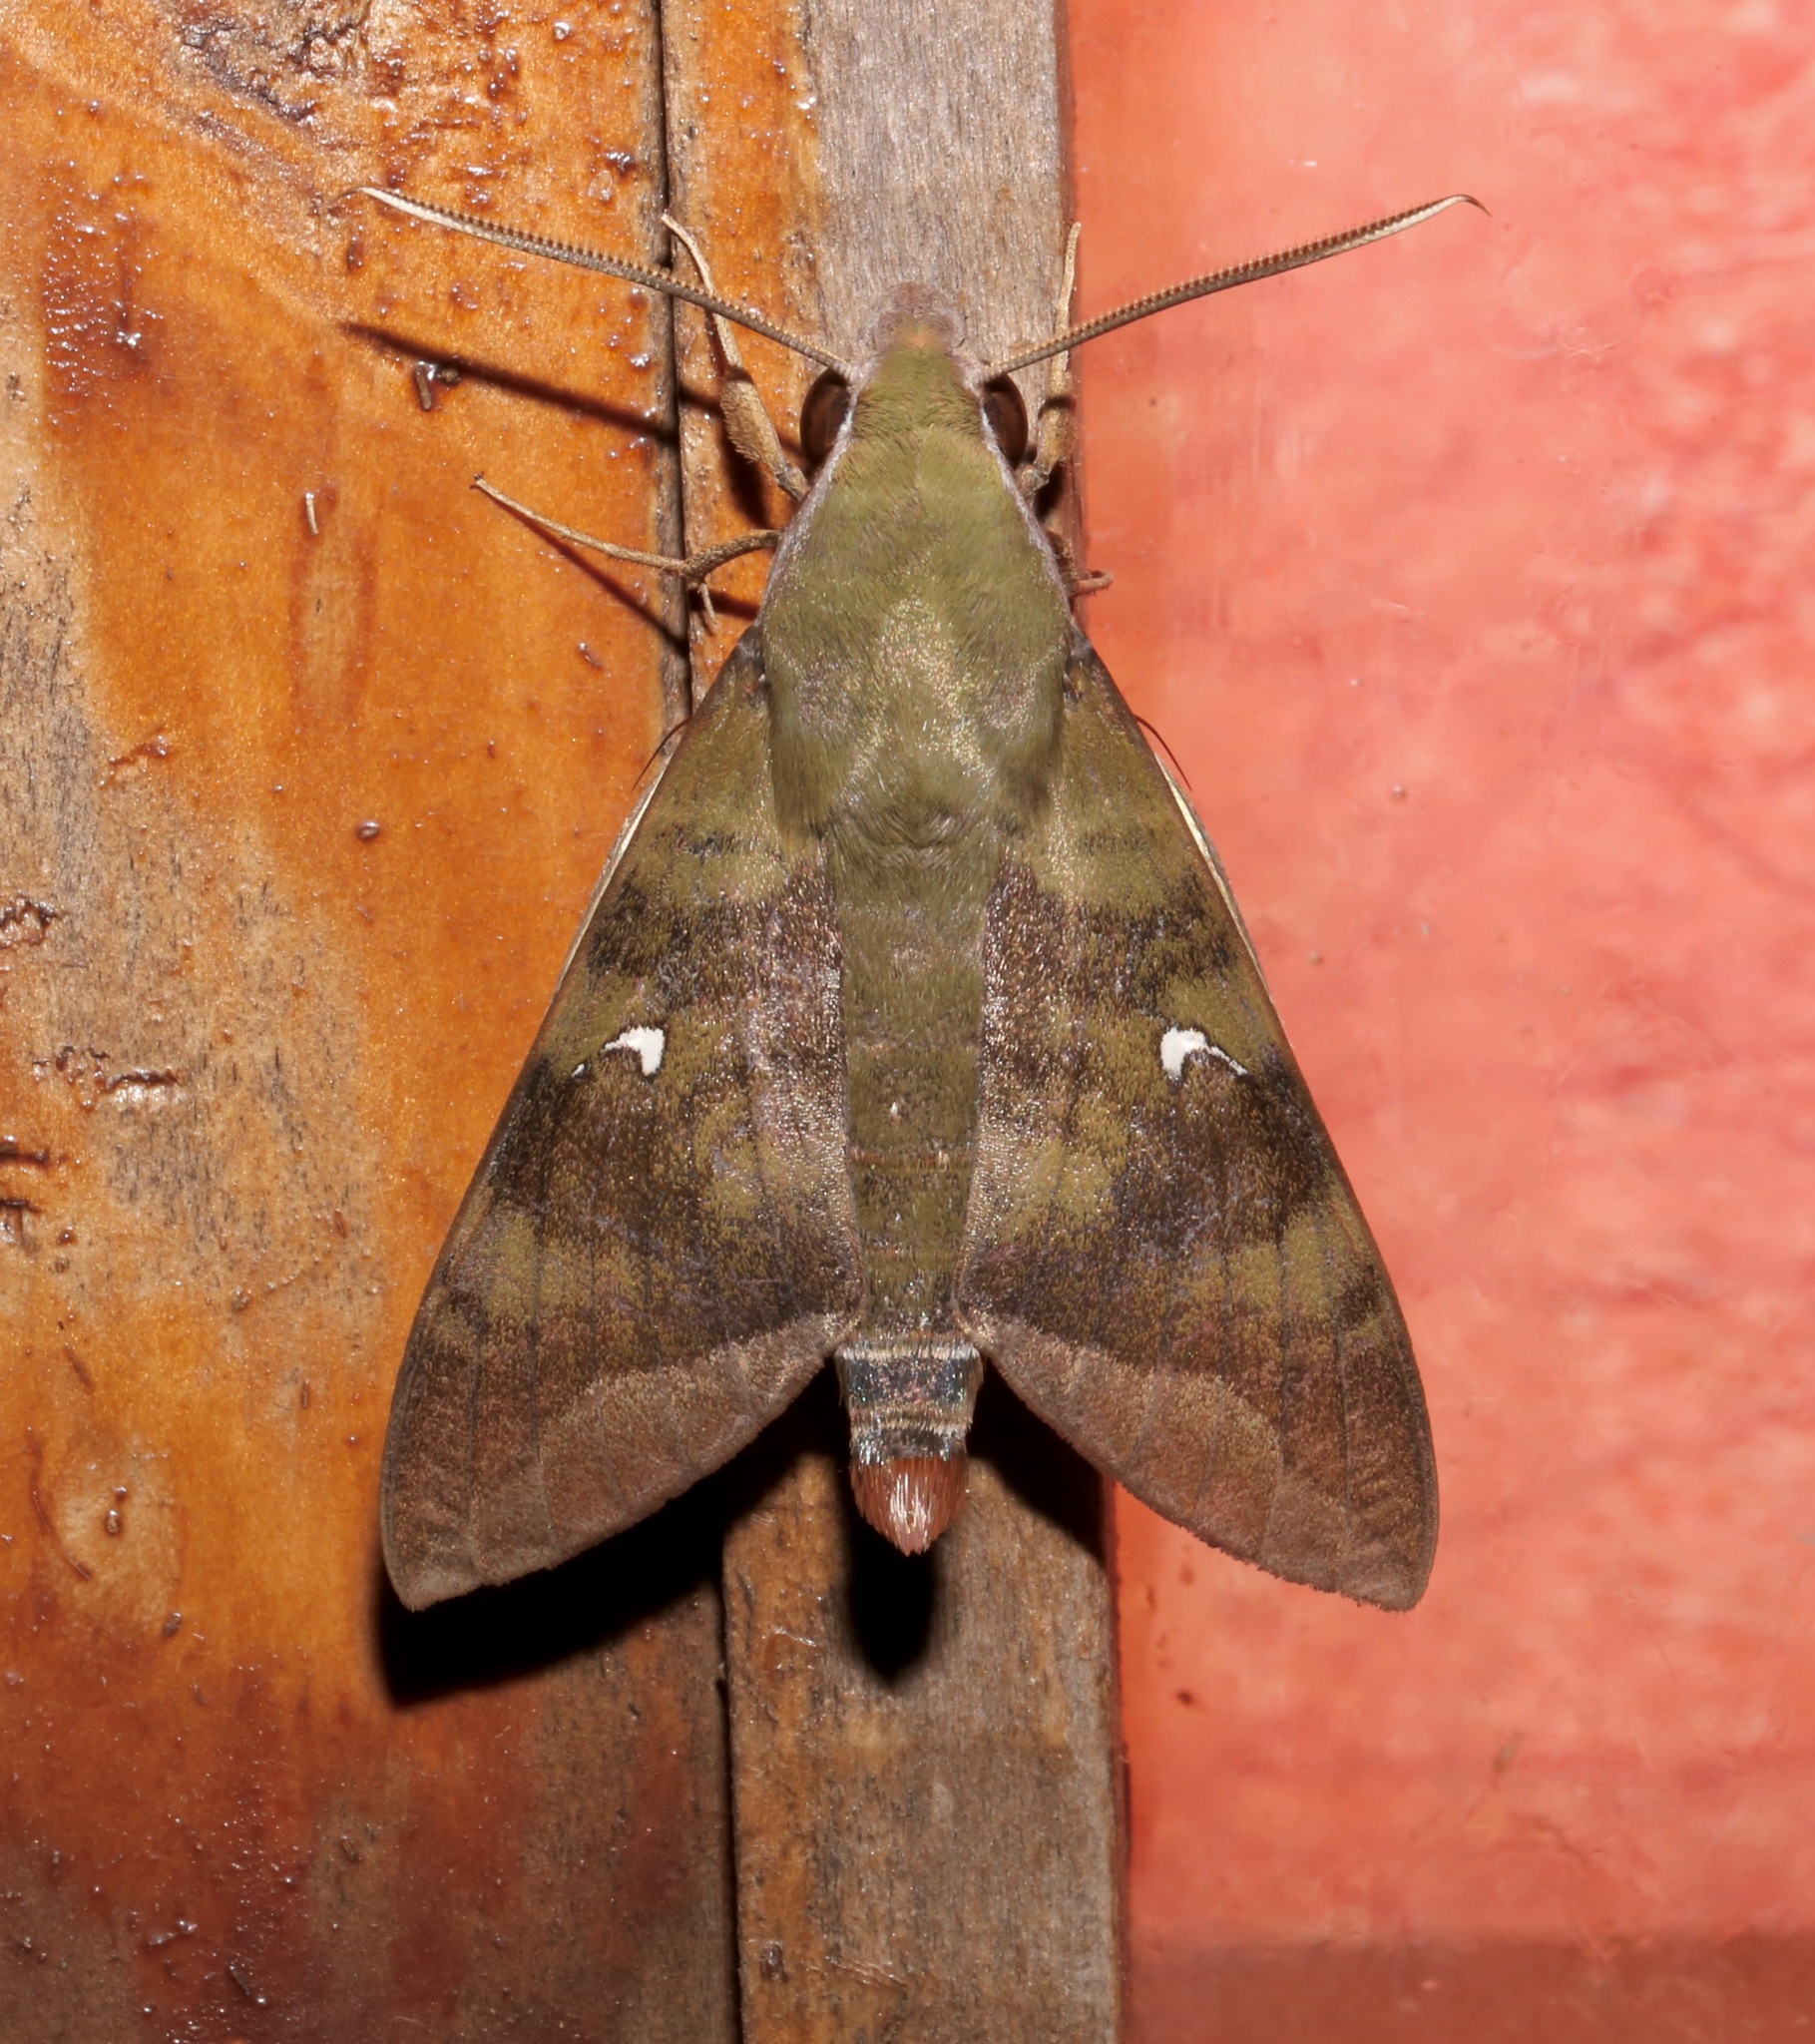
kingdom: Animalia
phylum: Arthropoda
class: Insecta
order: Lepidoptera
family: Sphingidae
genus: Nephele
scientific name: Nephele comma
